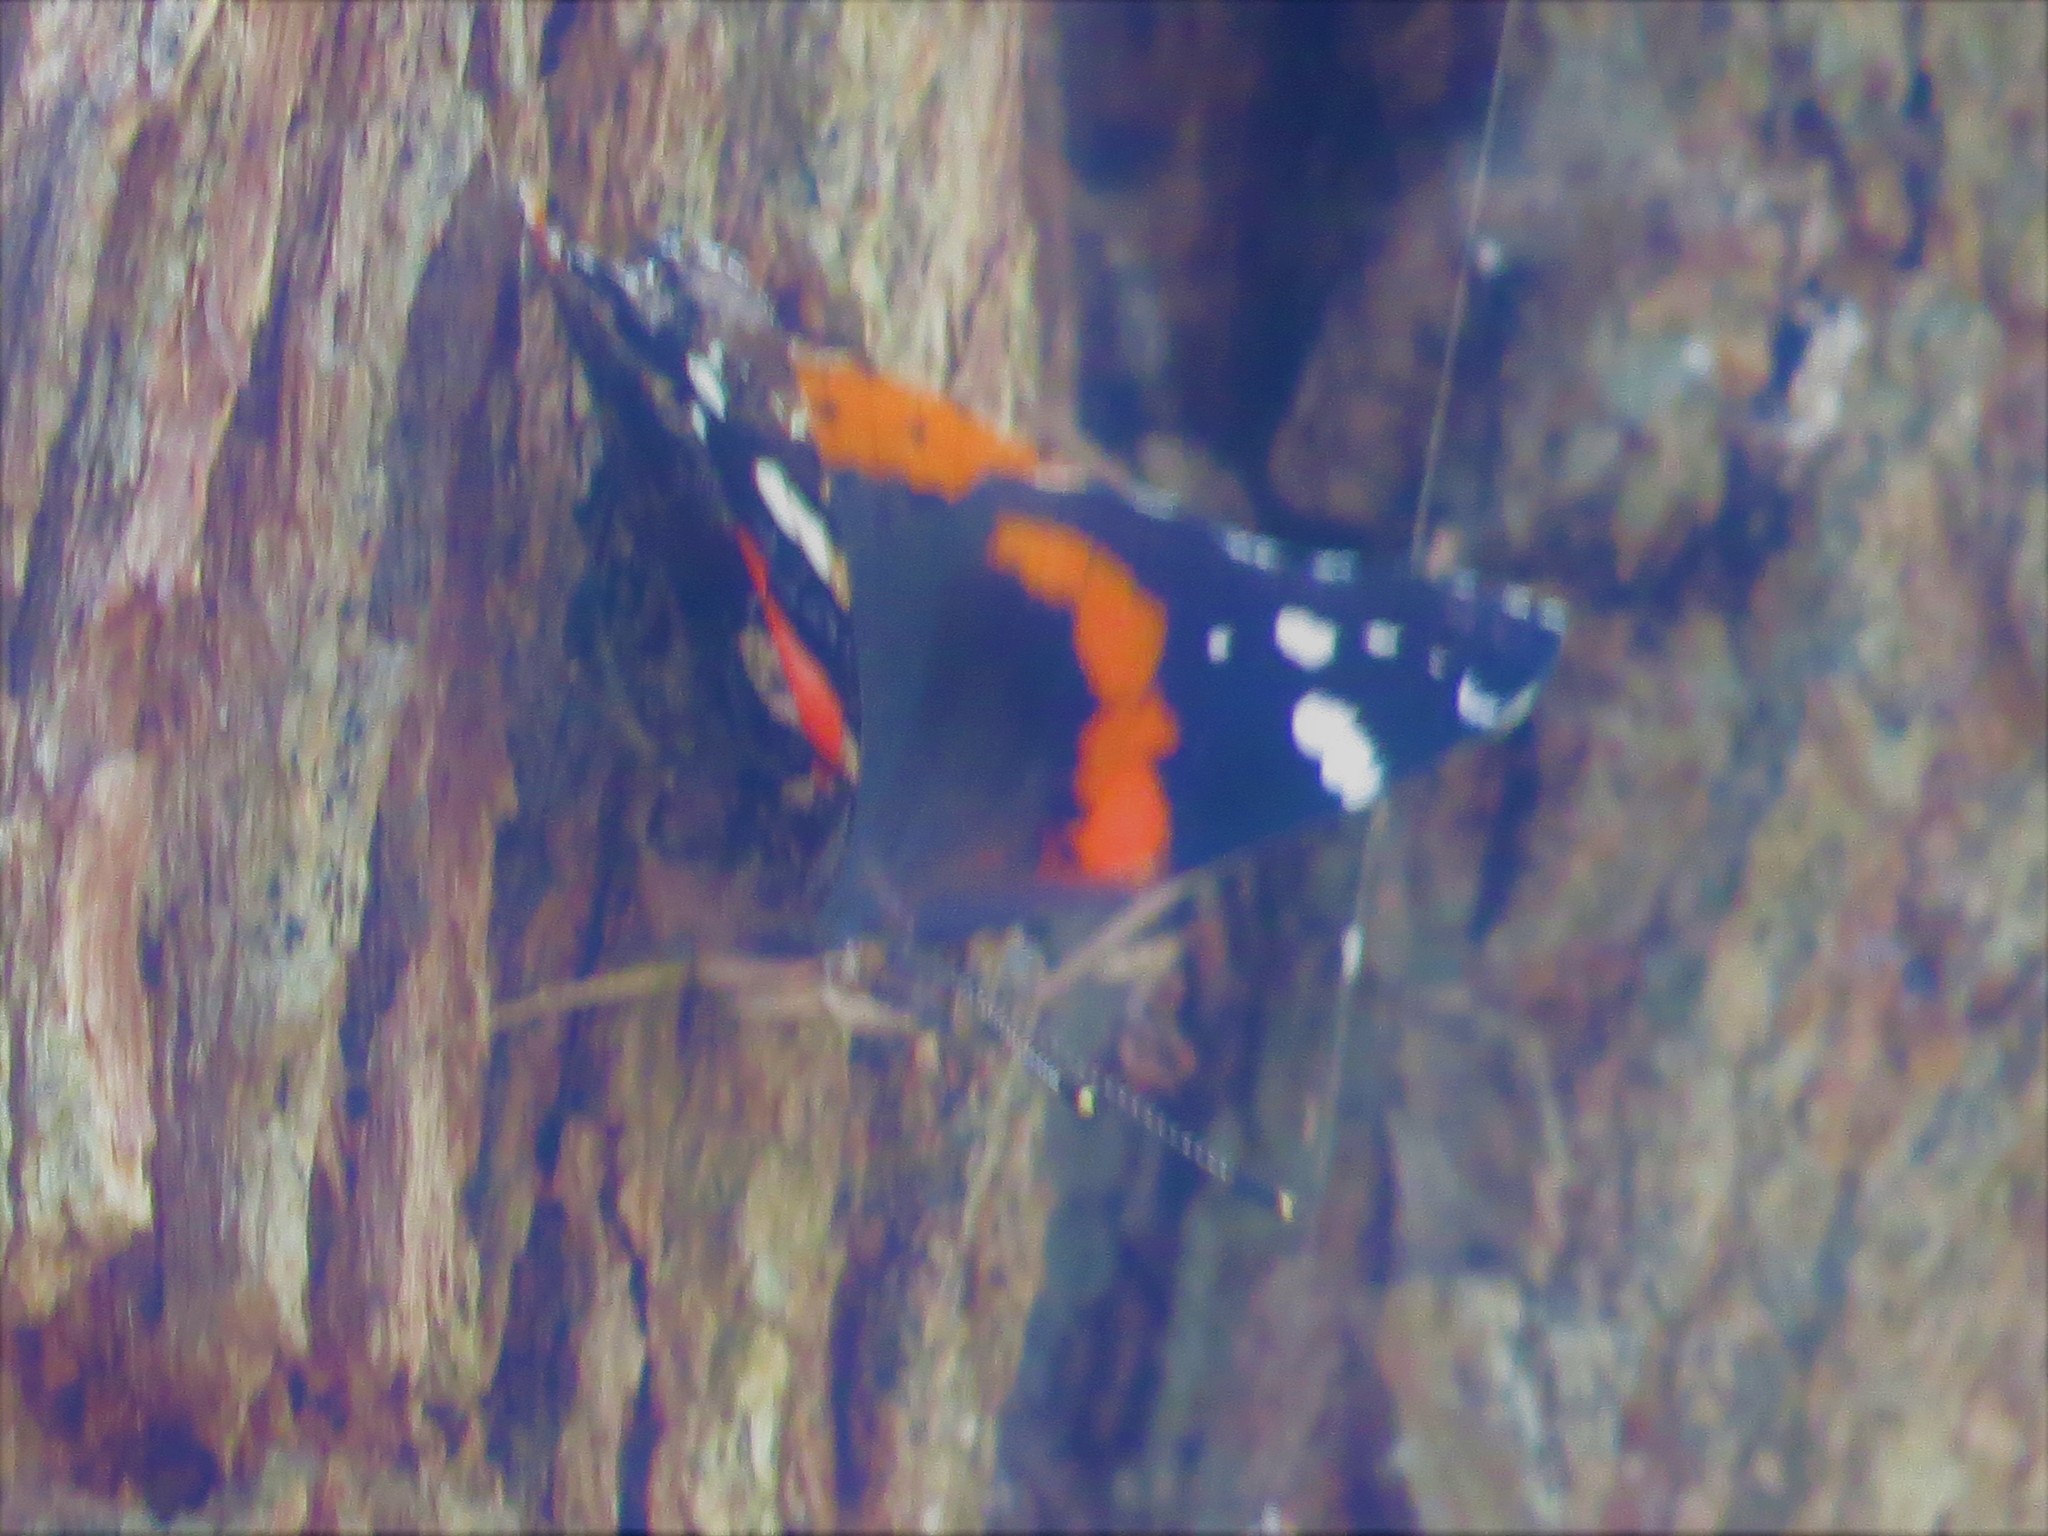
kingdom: Animalia
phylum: Arthropoda
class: Insecta
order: Lepidoptera
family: Nymphalidae
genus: Vanessa
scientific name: Vanessa atalanta
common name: Red admiral
